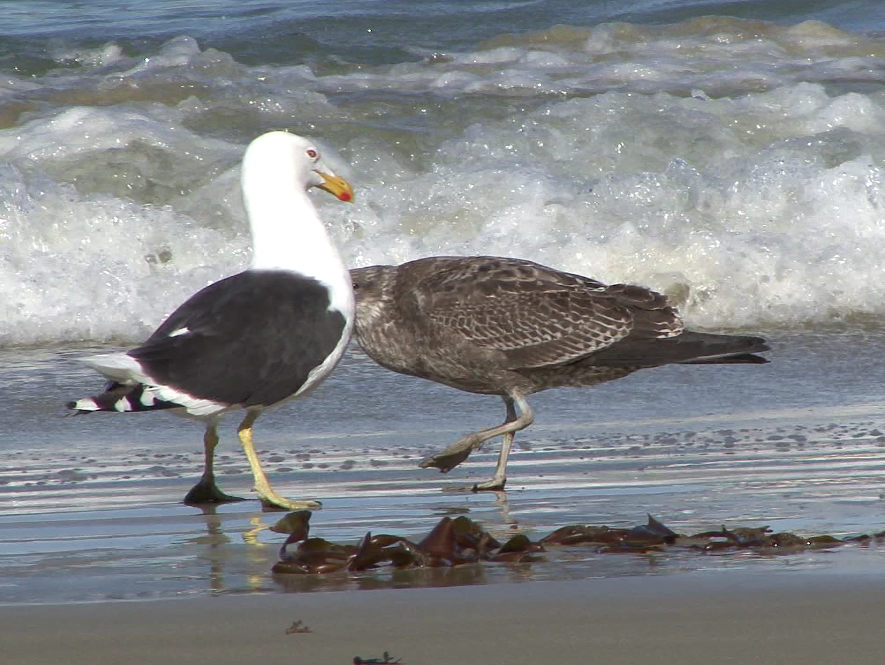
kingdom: Animalia
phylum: Chordata
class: Aves
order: Charadriiformes
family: Laridae
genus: Larus
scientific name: Larus dominicanus
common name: Kelp gull
